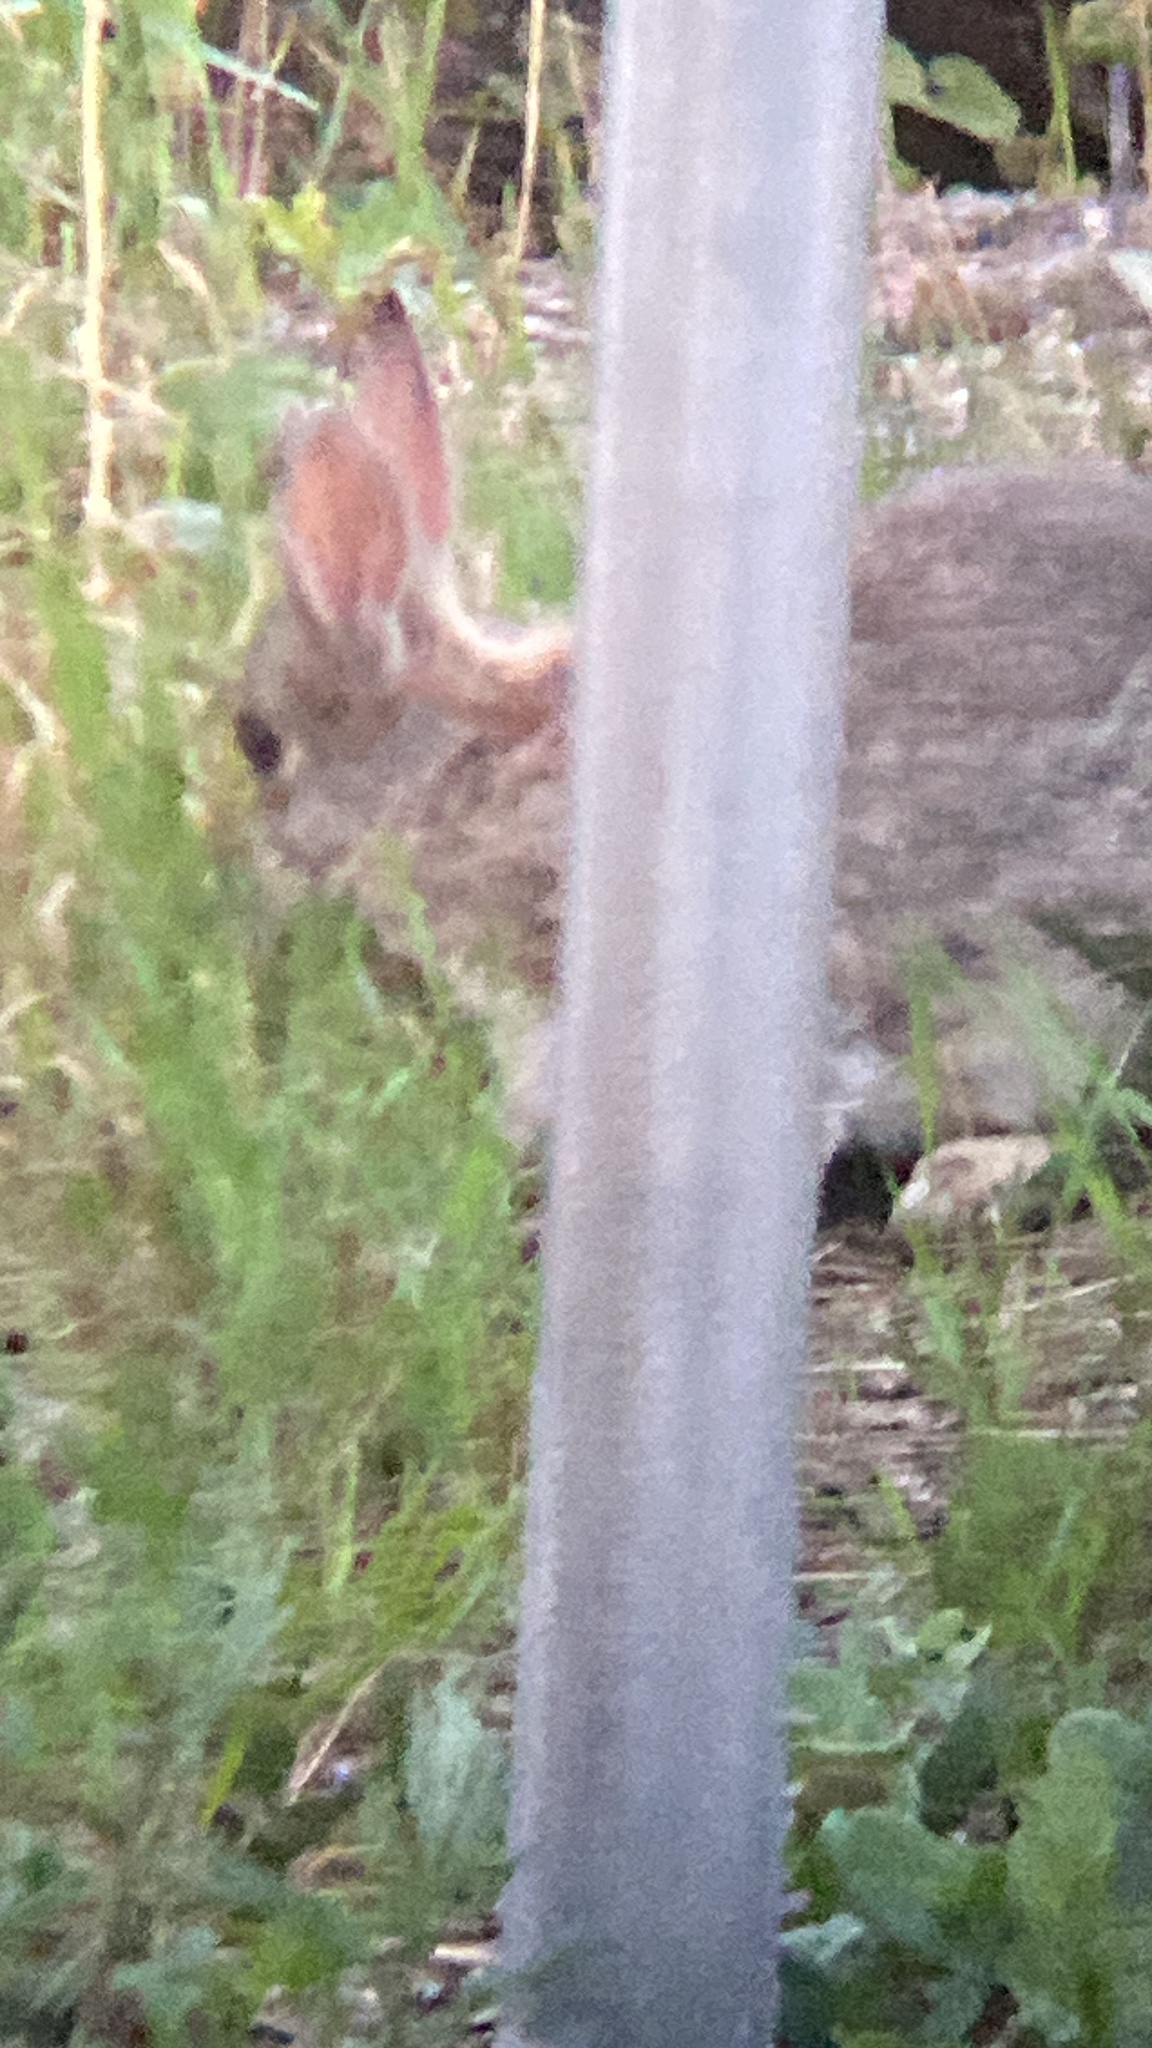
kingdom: Animalia
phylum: Chordata
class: Mammalia
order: Lagomorpha
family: Leporidae
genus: Oryctolagus
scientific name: Oryctolagus cuniculus
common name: European rabbit
